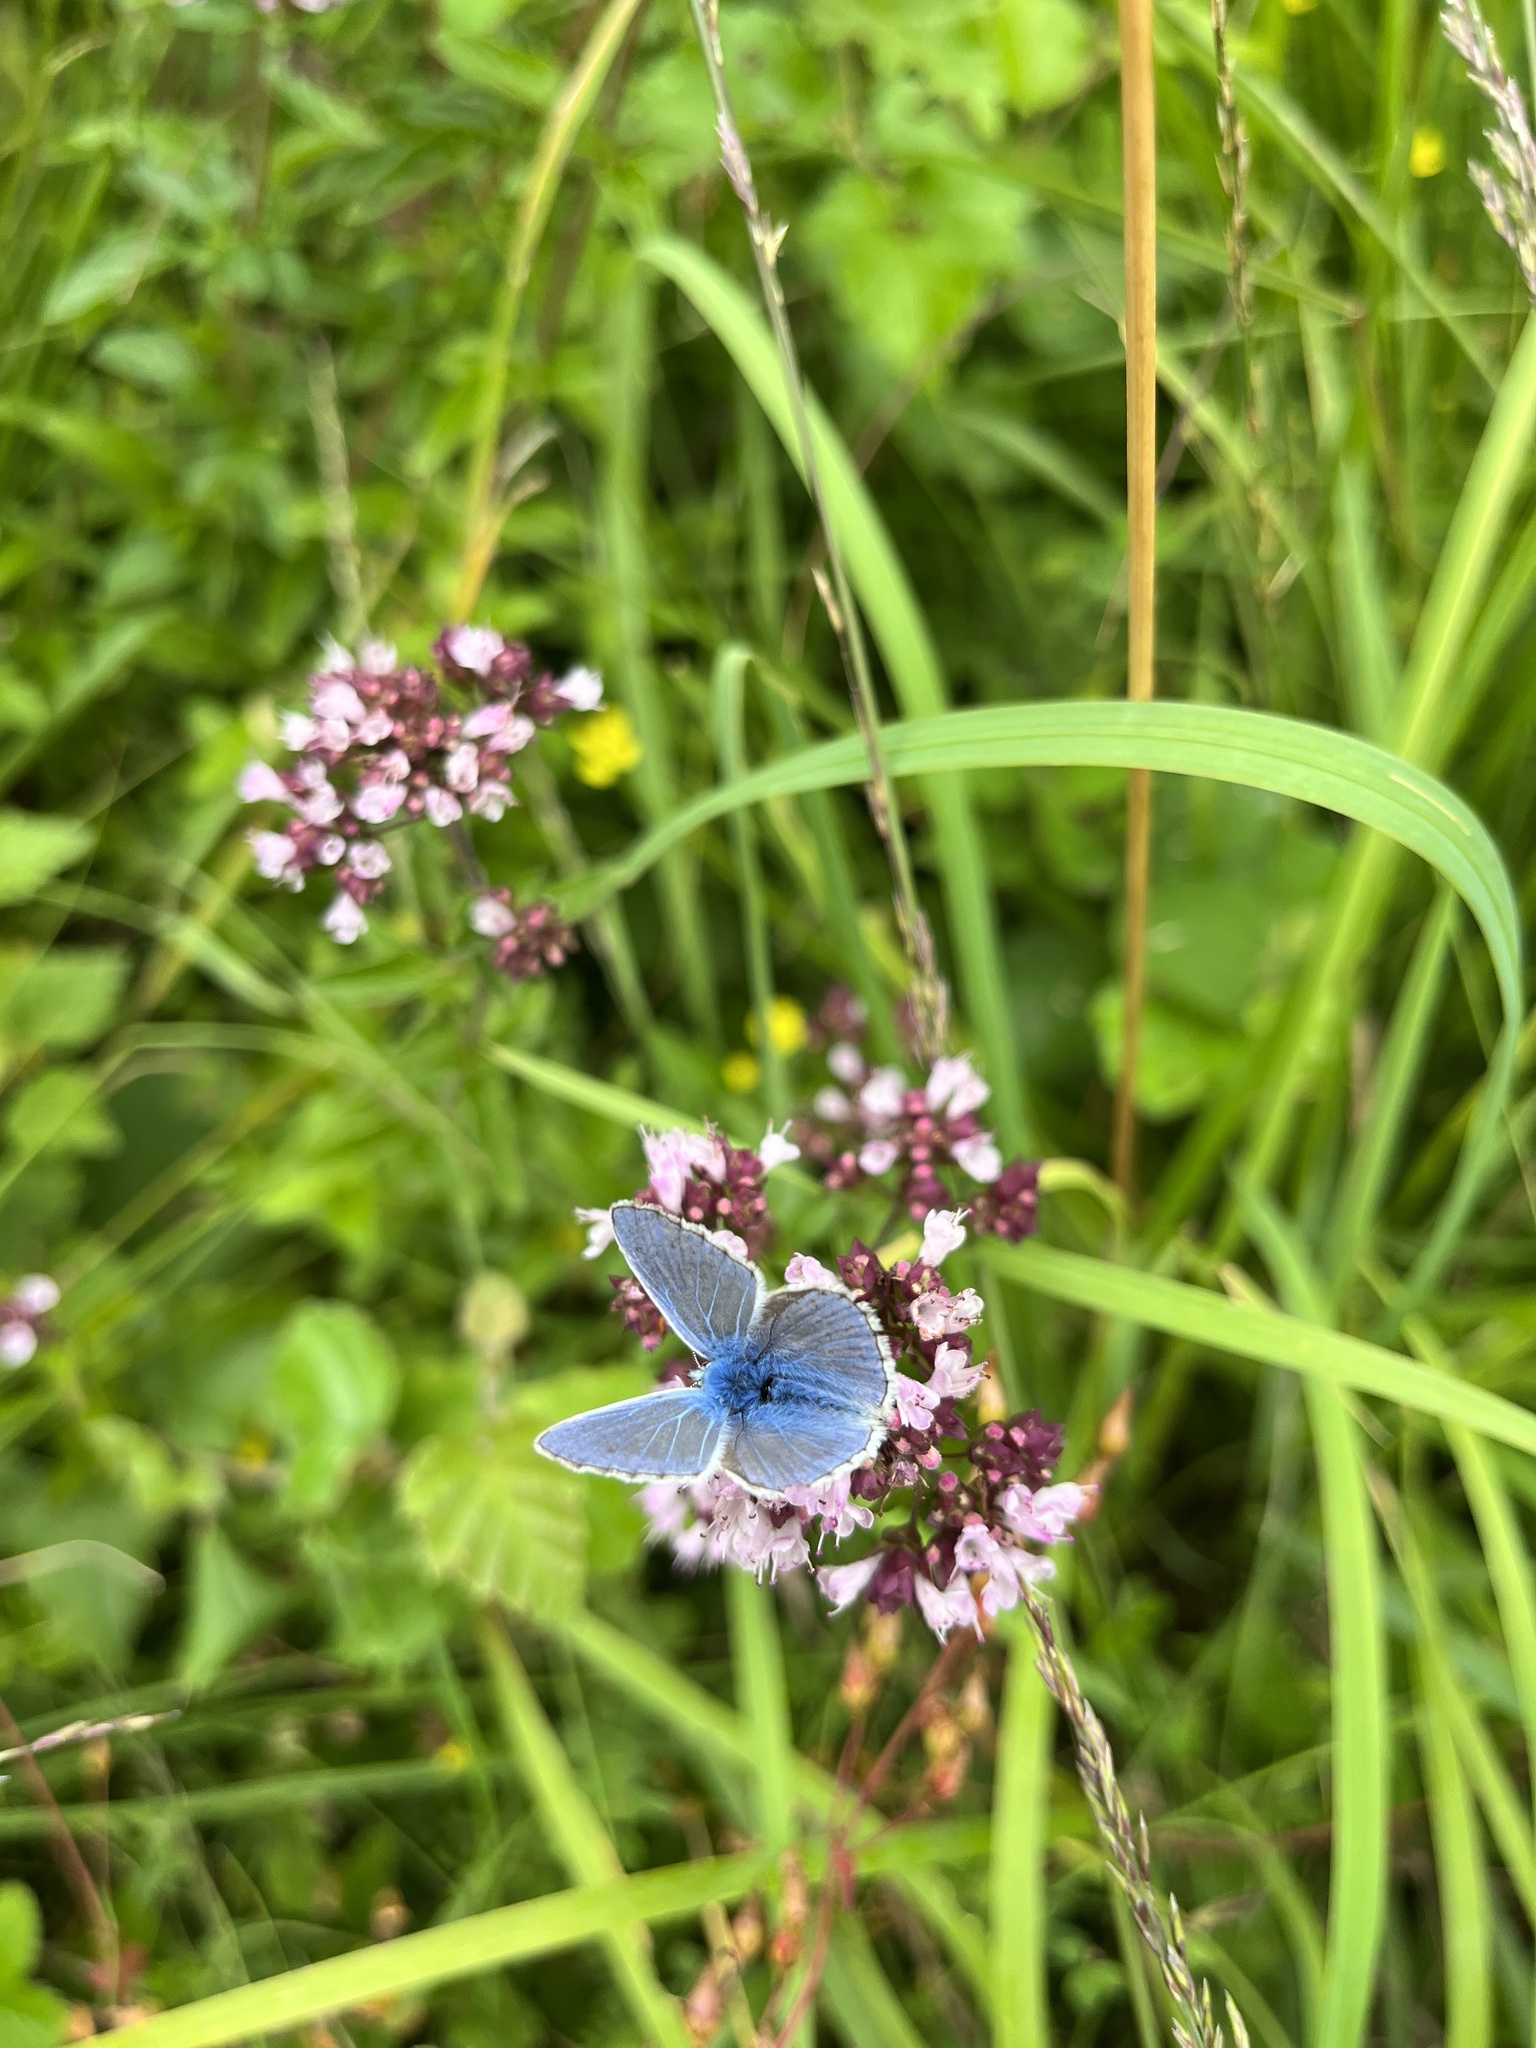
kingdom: Animalia
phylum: Arthropoda
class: Insecta
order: Lepidoptera
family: Lycaenidae
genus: Polyommatus
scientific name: Polyommatus icarus
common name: Common blue
